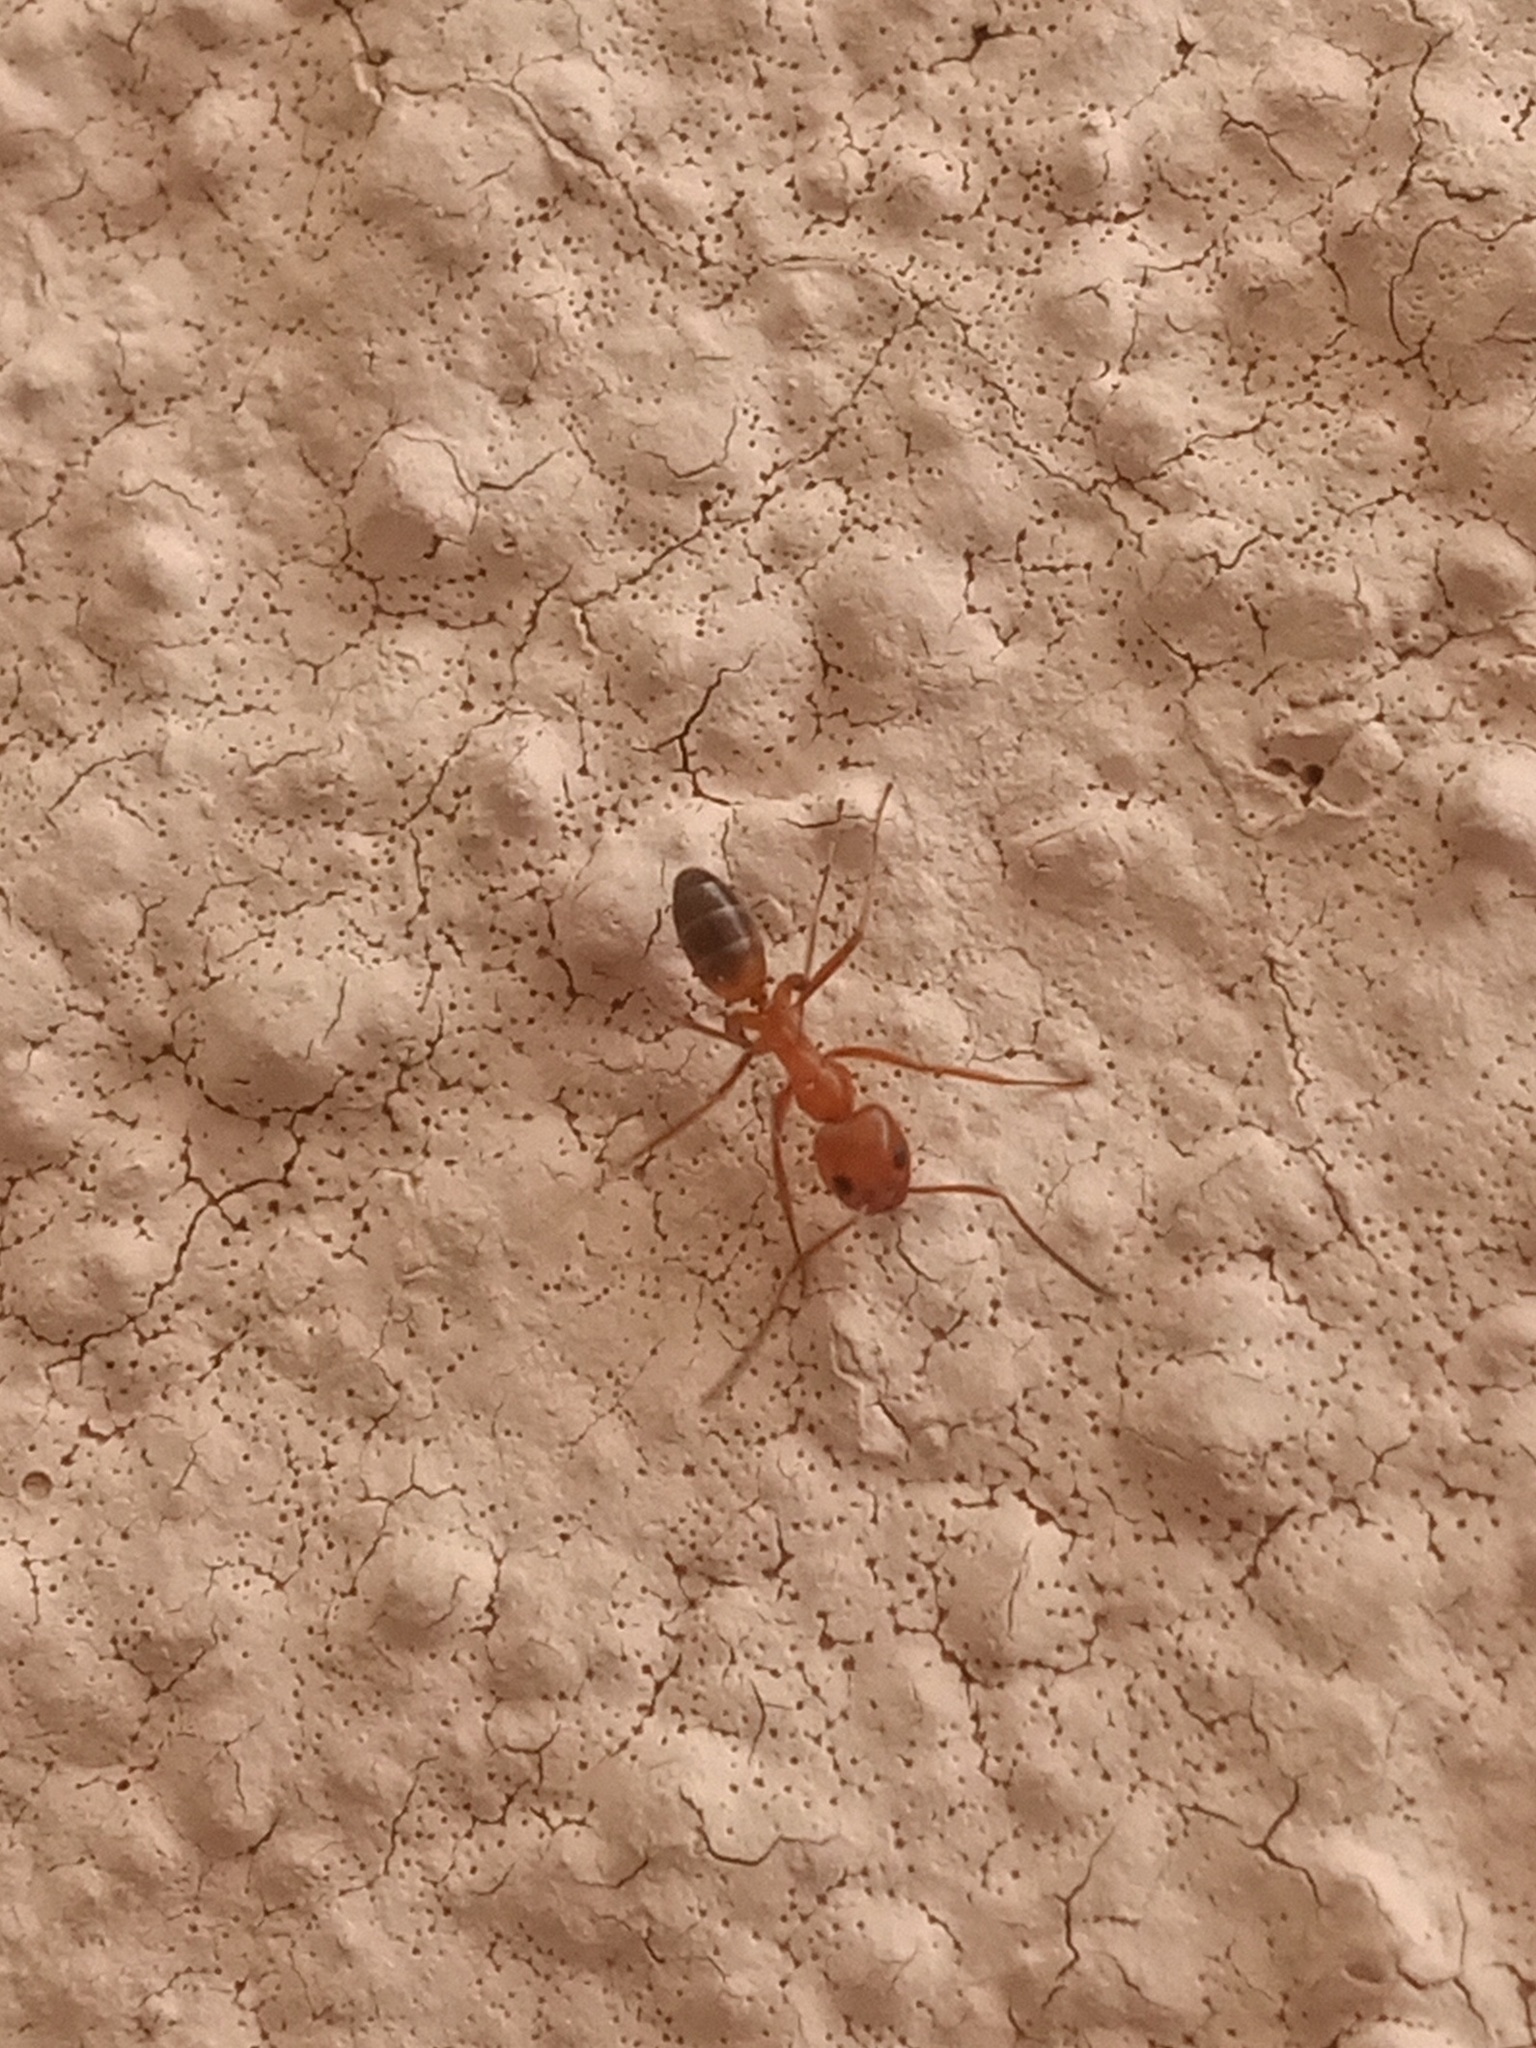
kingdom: Animalia
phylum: Arthropoda
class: Insecta
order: Hymenoptera
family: Formicidae
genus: Dorymyrmex
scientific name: Dorymyrmex bicolor
